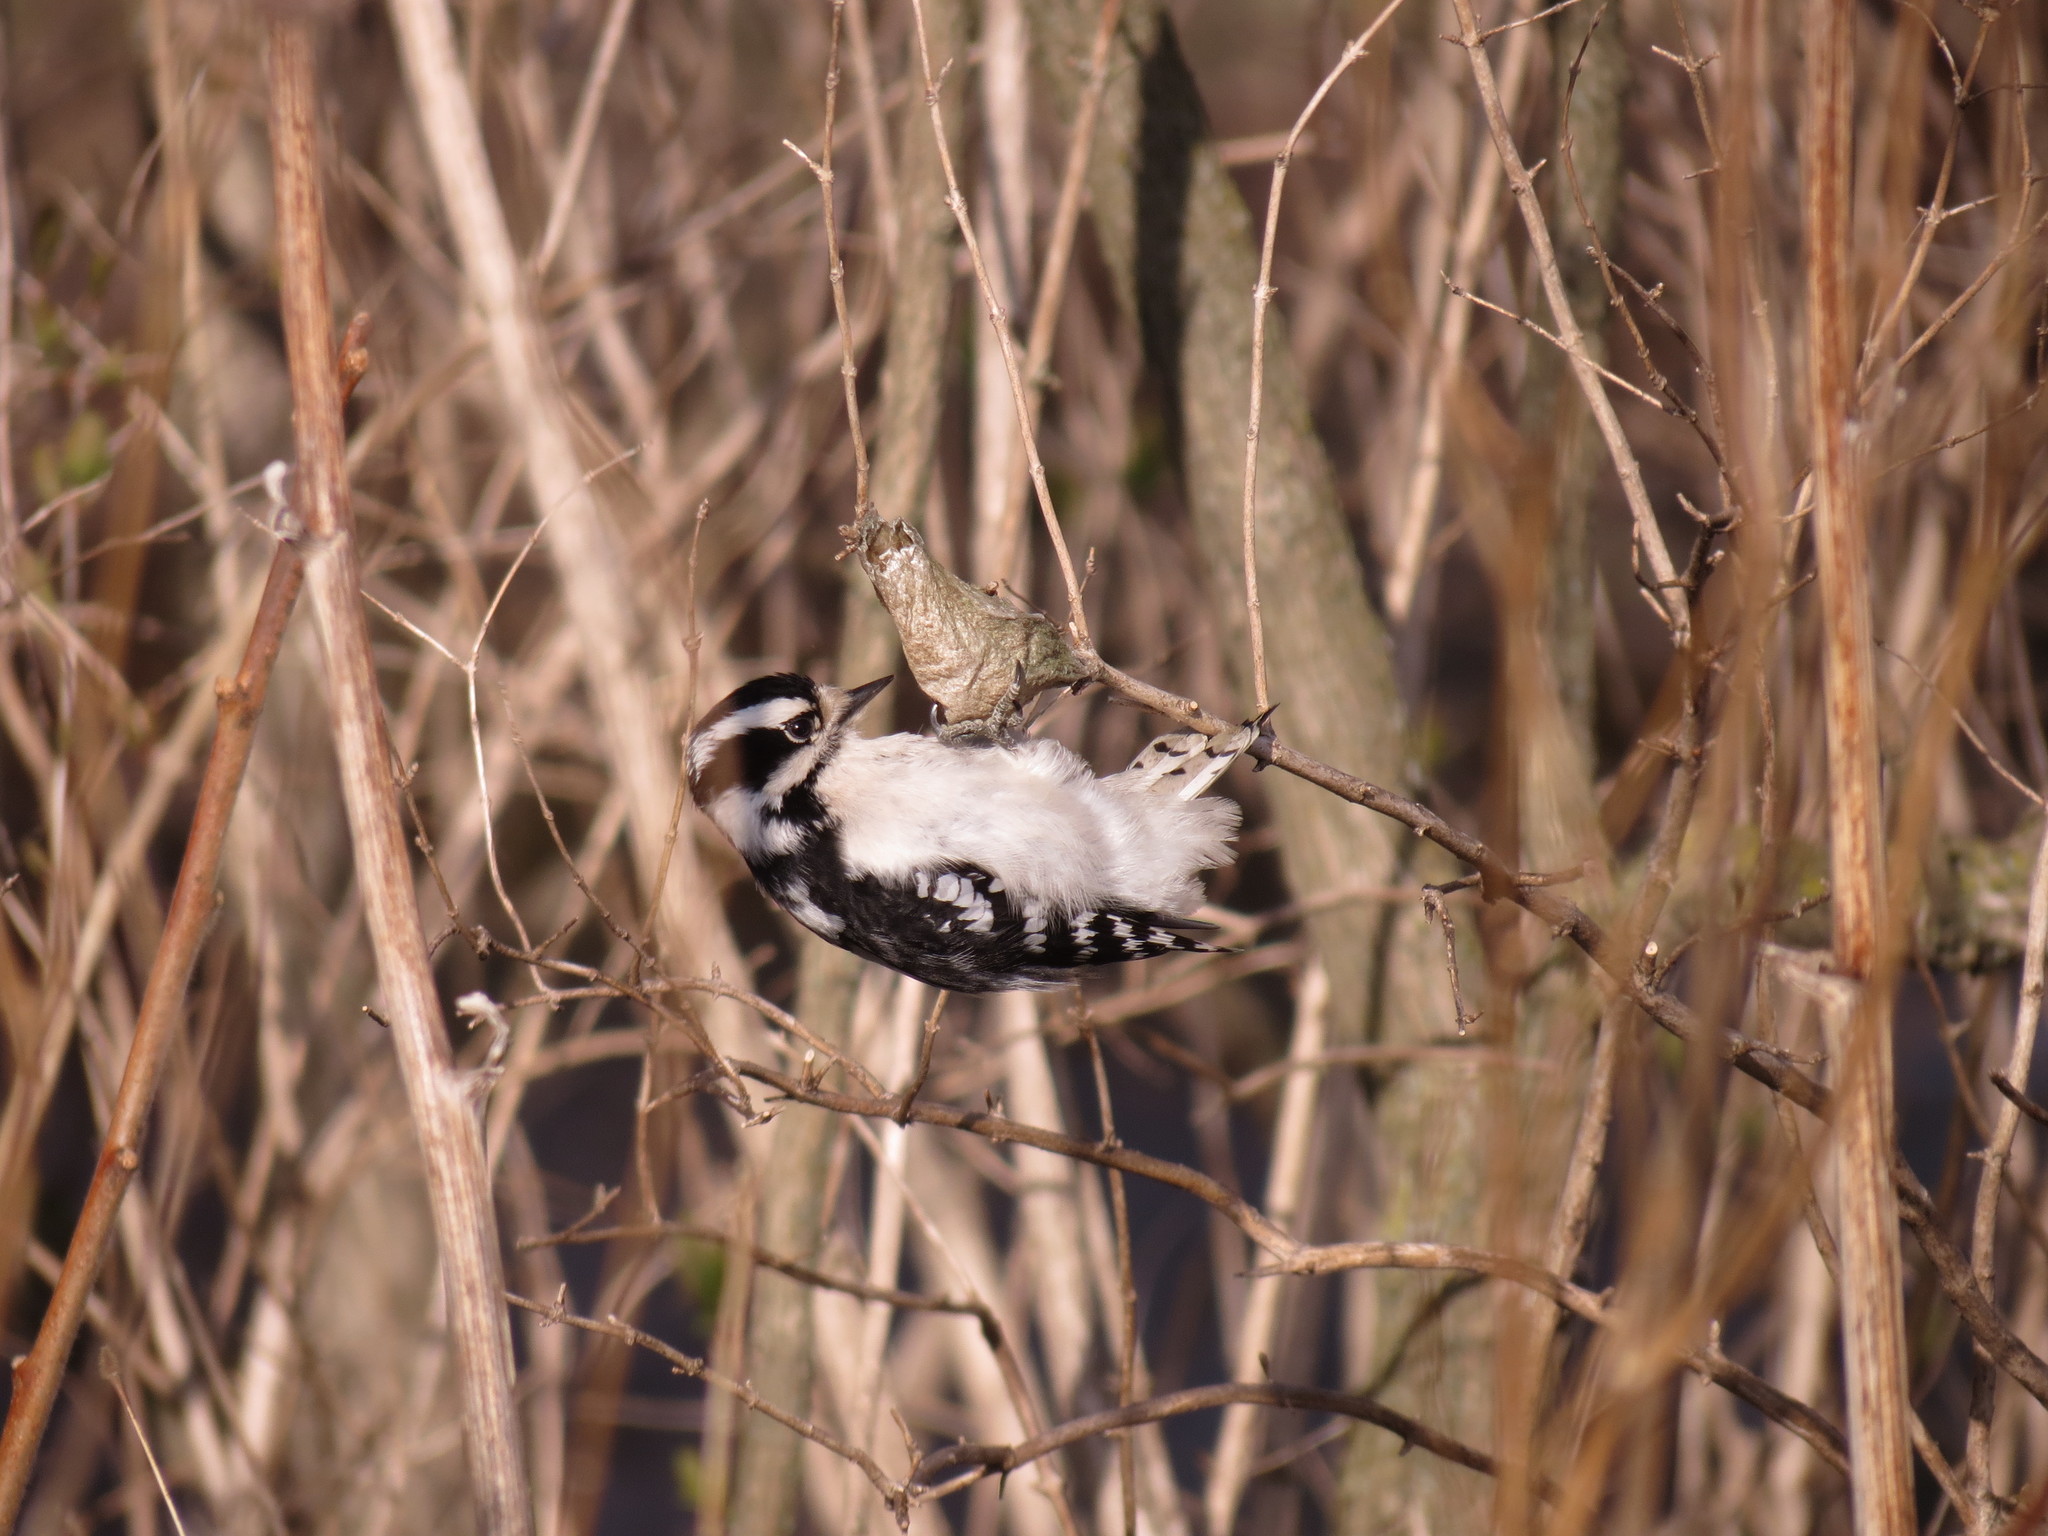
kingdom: Animalia
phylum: Chordata
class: Aves
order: Piciformes
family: Picidae
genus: Dryobates
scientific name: Dryobates pubescens
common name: Downy woodpecker
